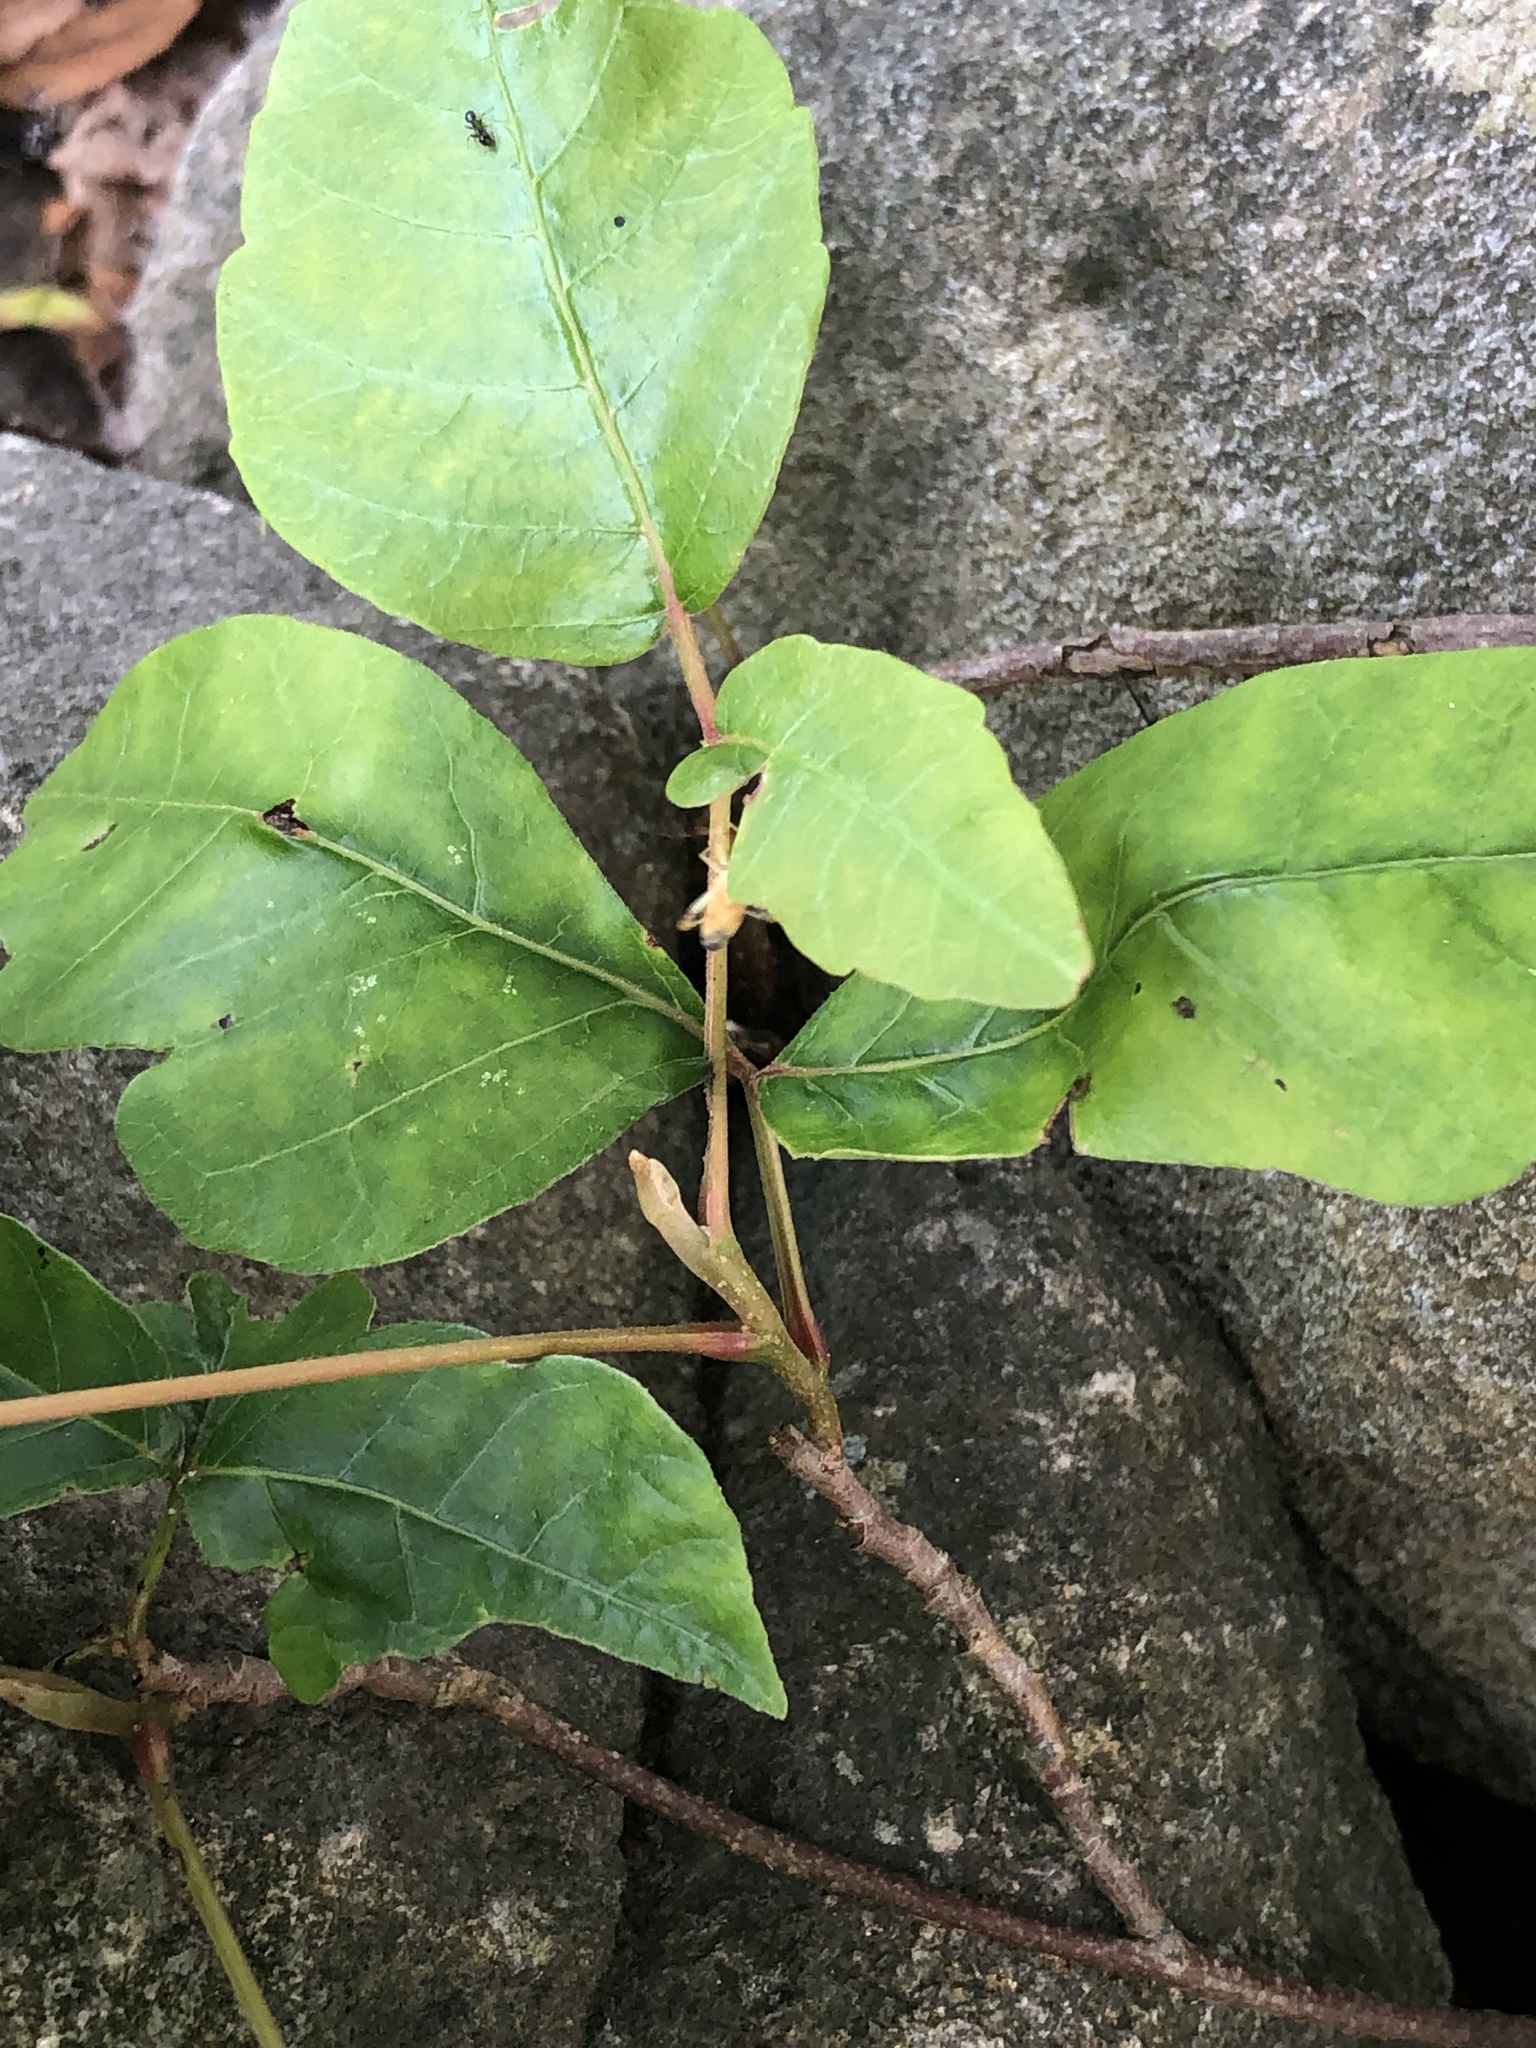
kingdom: Plantae
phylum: Tracheophyta
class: Magnoliopsida
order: Sapindales
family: Anacardiaceae
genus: Toxicodendron
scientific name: Toxicodendron radicans
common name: Poison ivy
